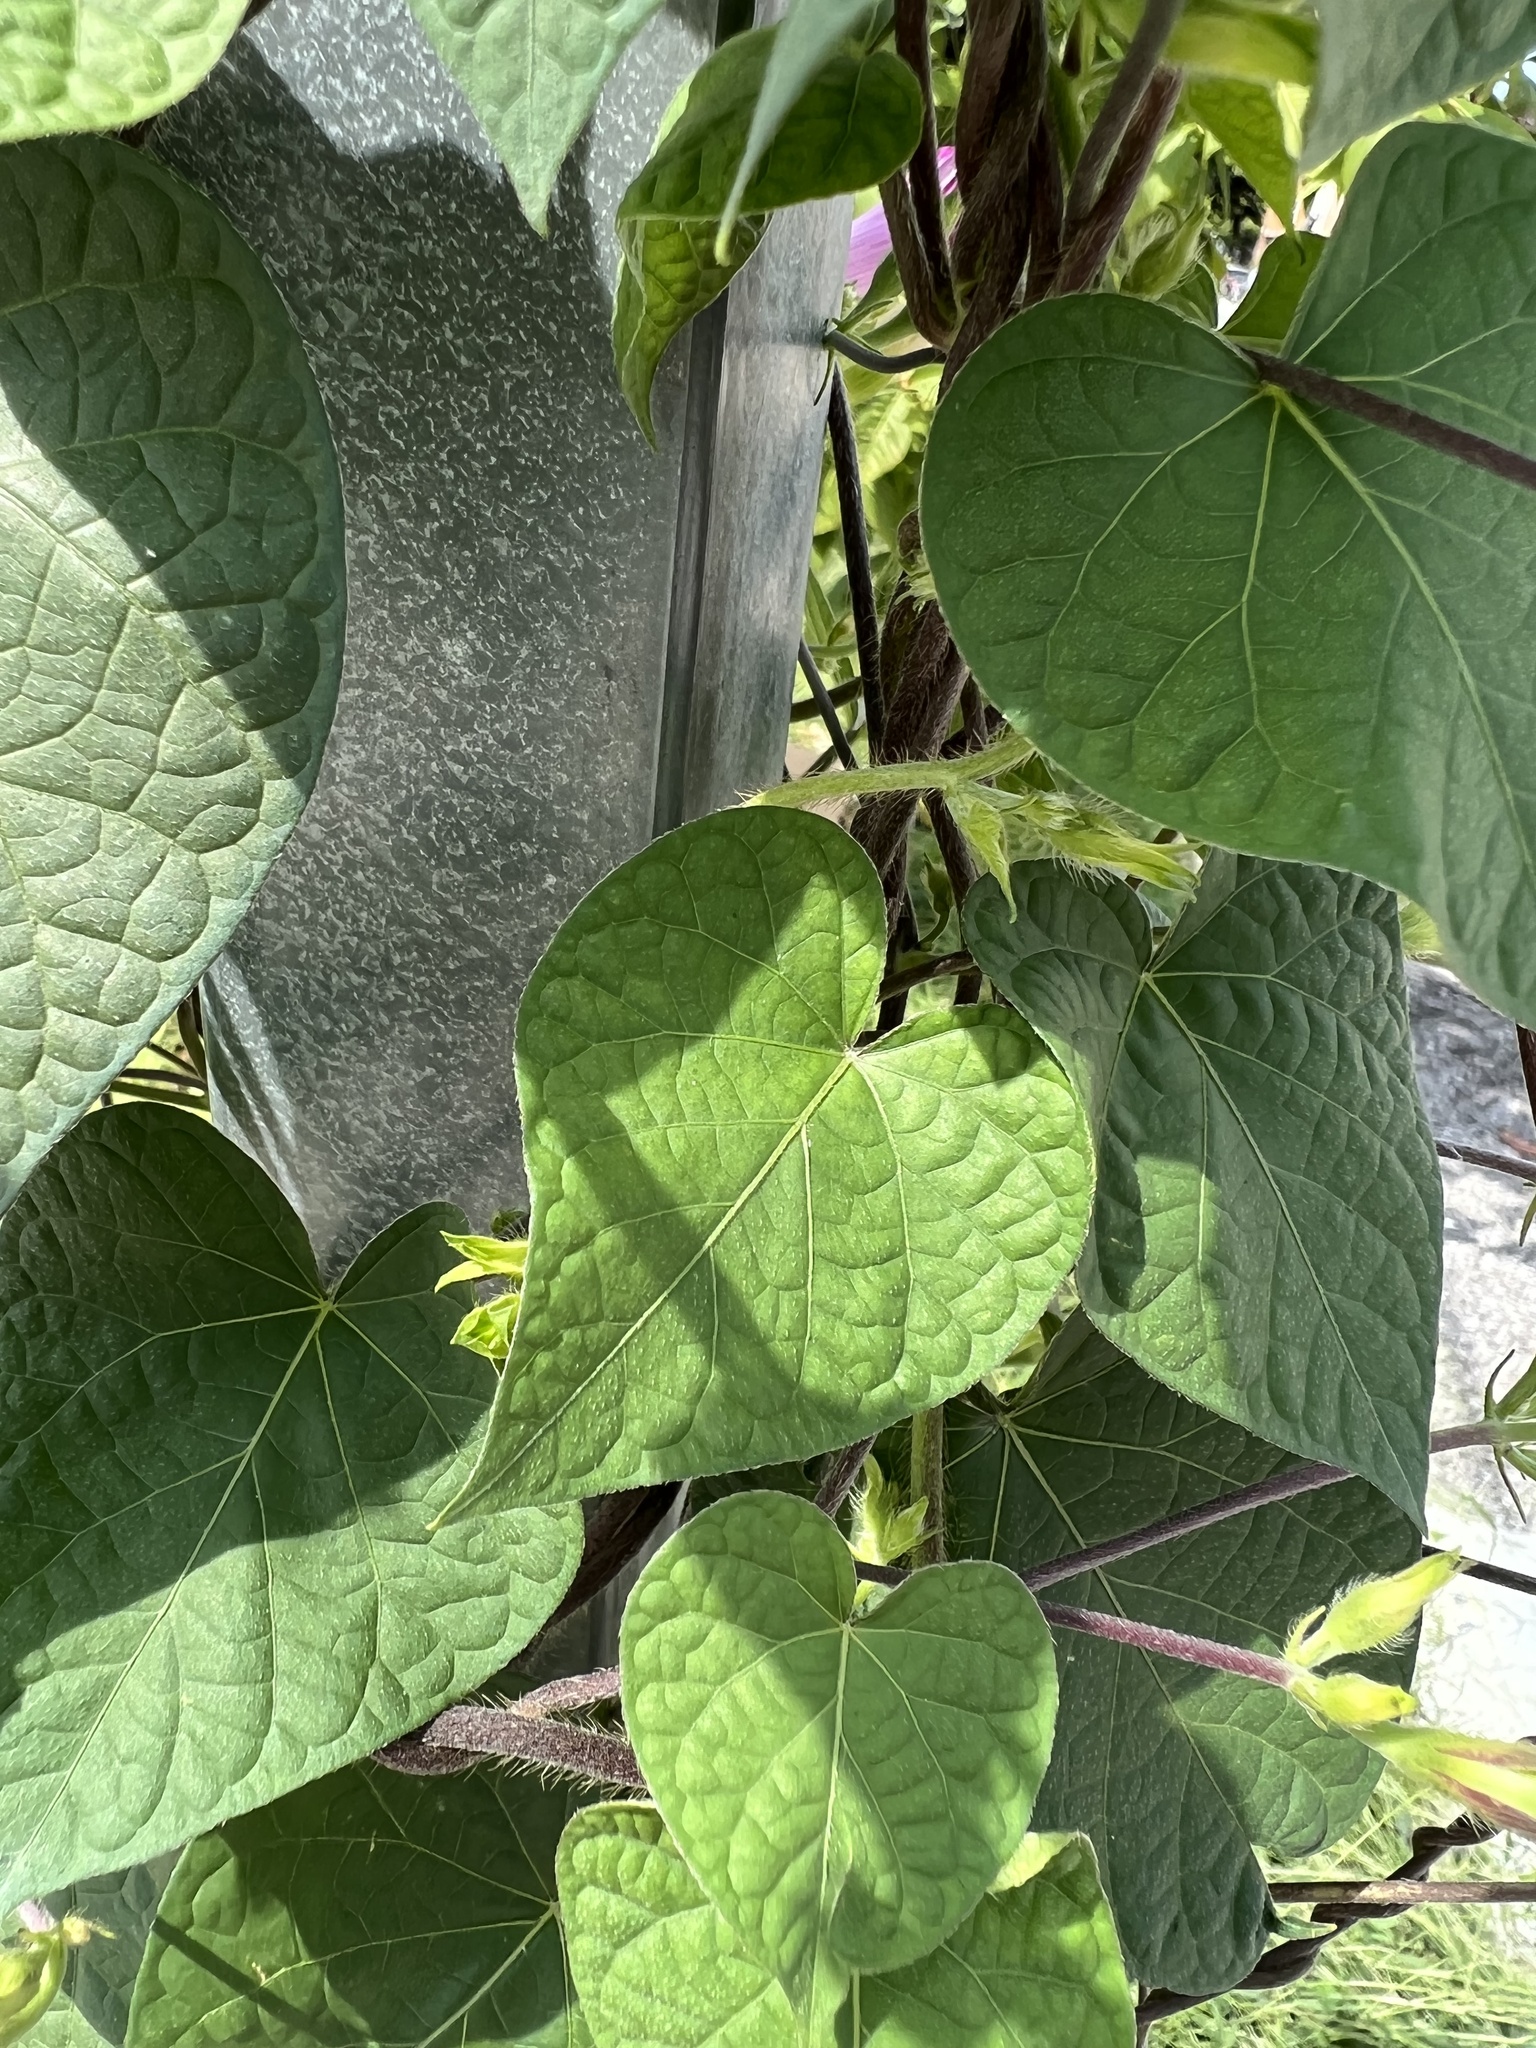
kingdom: Plantae
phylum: Tracheophyta
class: Magnoliopsida
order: Solanales
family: Convolvulaceae
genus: Ipomoea
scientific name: Ipomoea purpurea
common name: Common morning-glory
